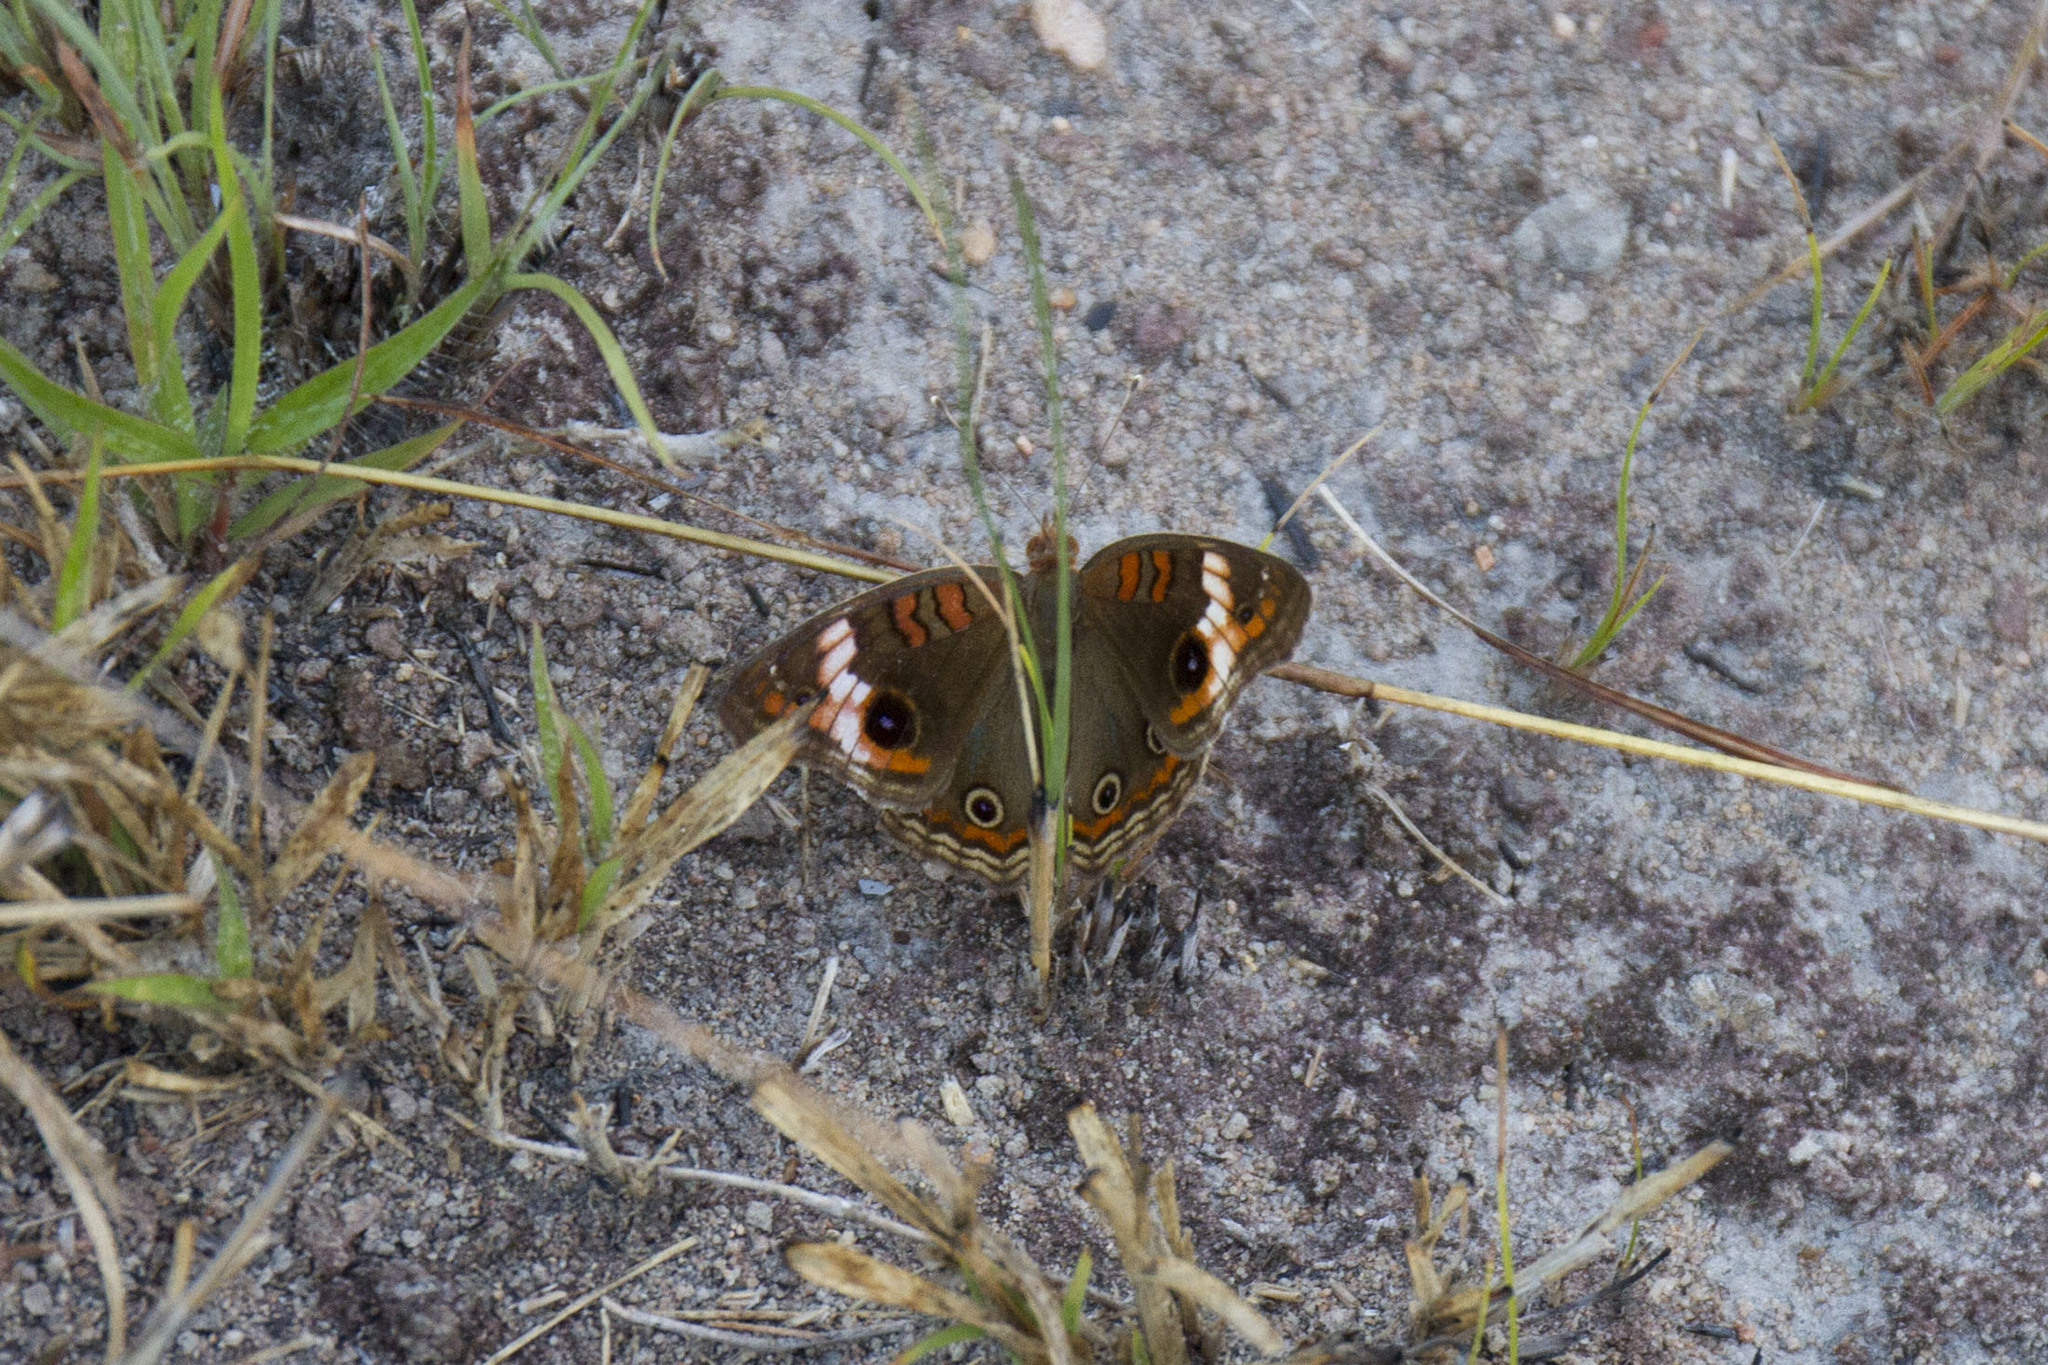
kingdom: Animalia
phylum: Arthropoda
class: Insecta
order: Lepidoptera
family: Nymphalidae
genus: Junonia
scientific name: Junonia evarete
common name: Black mangrove buckeye
